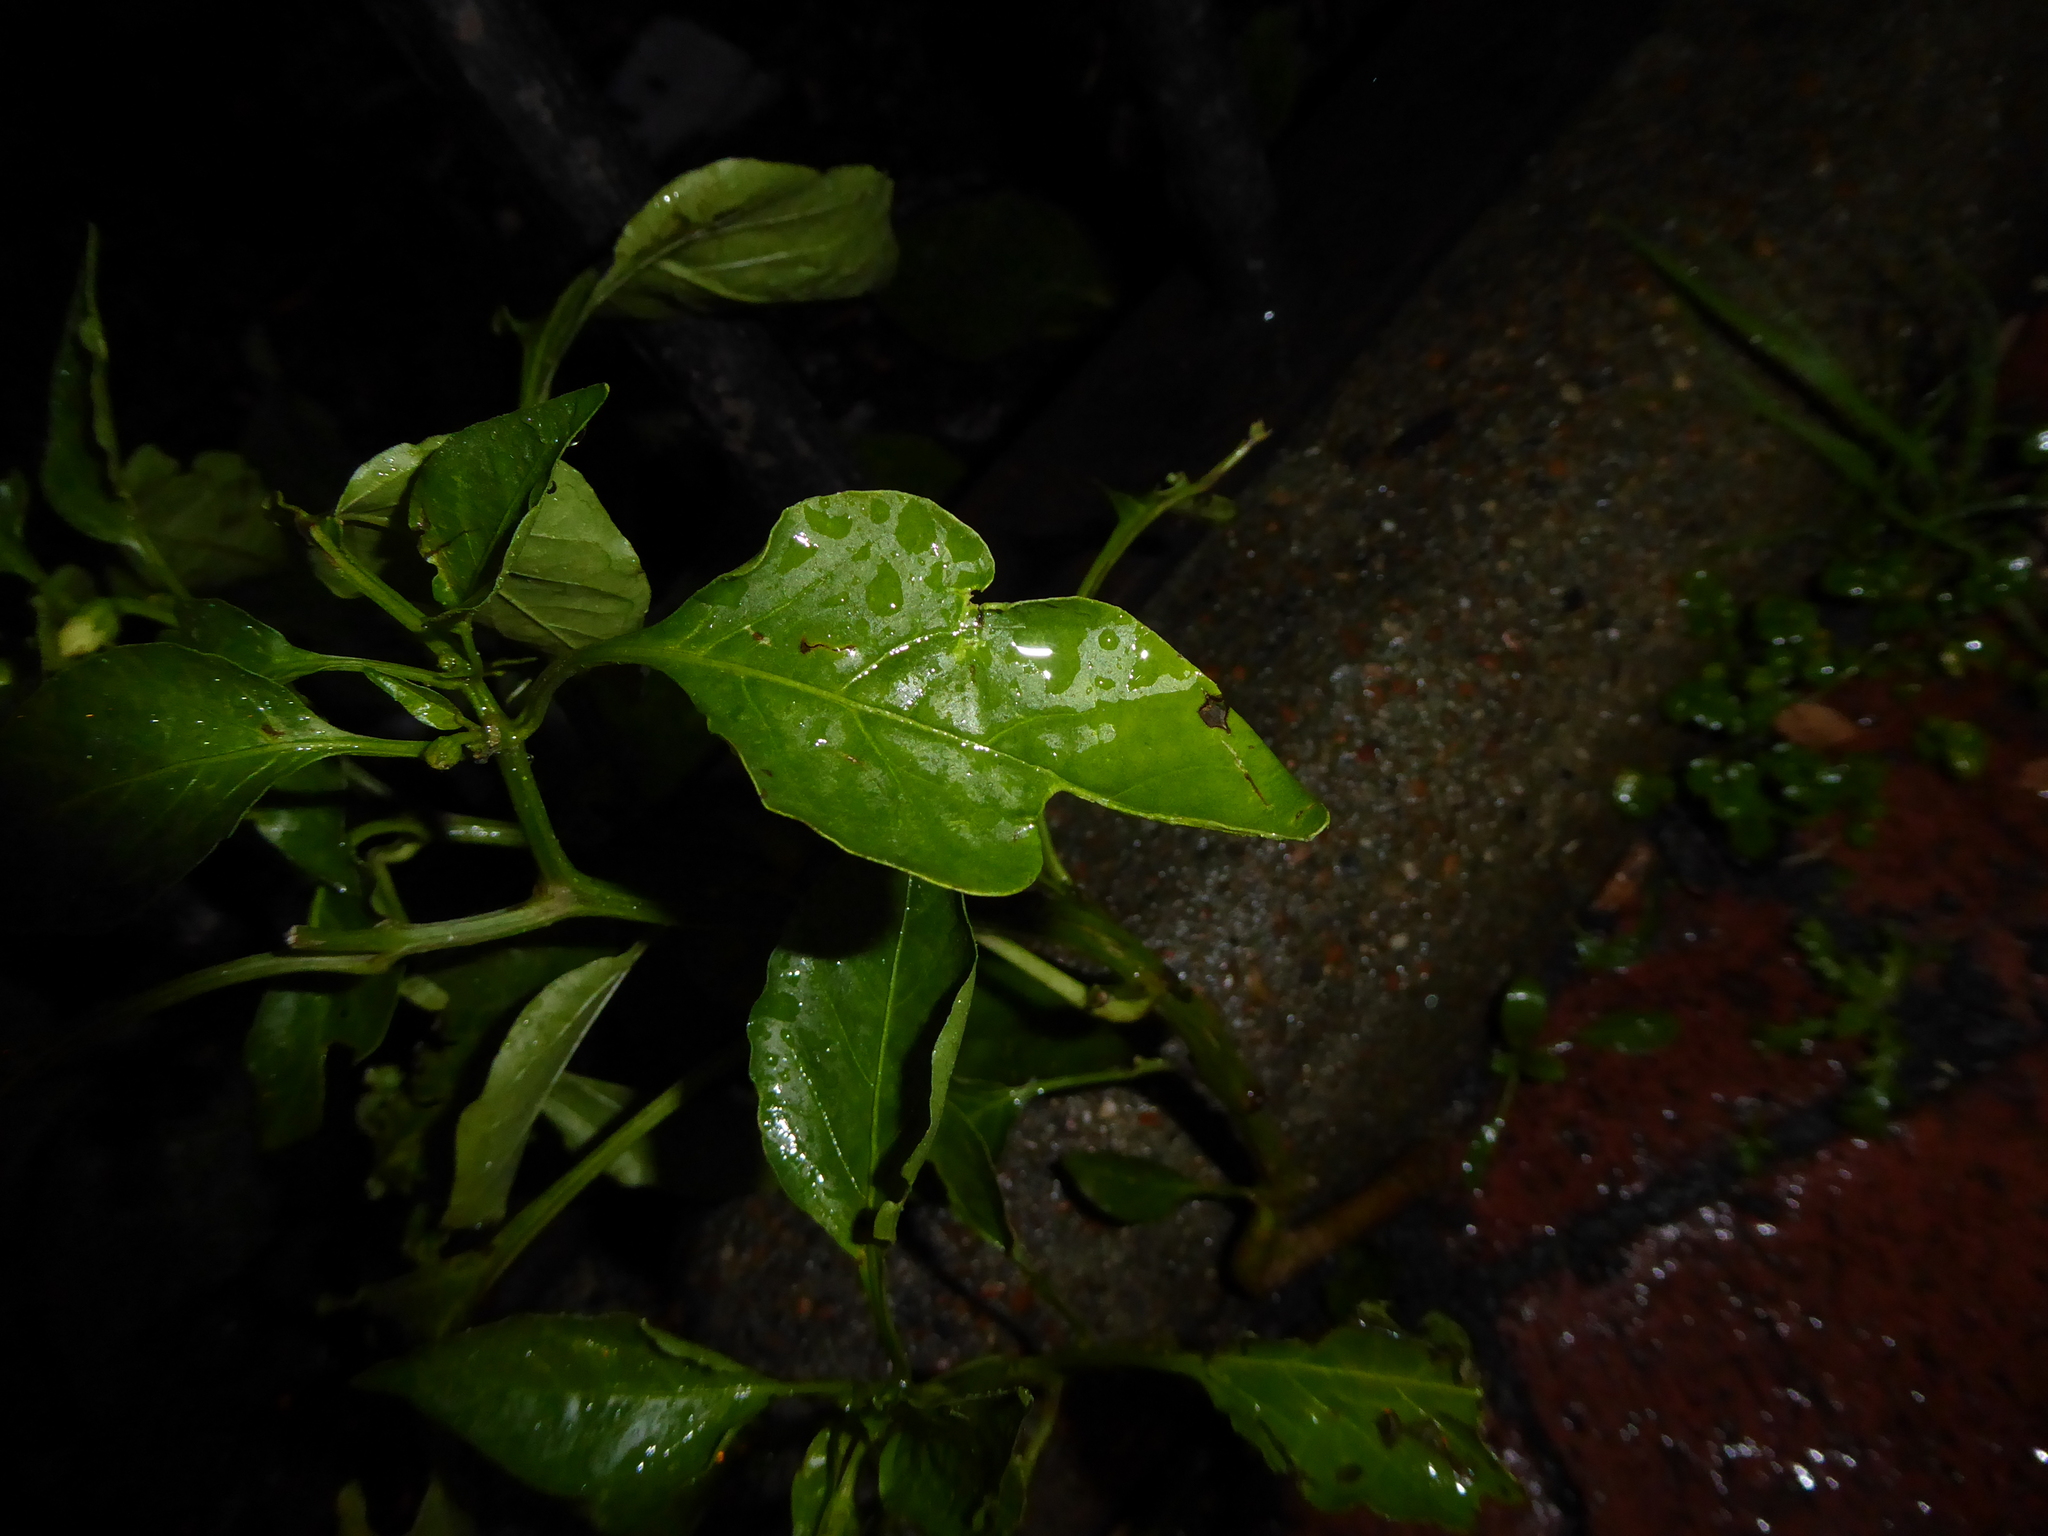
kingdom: Plantae
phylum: Tracheophyta
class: Magnoliopsida
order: Solanales
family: Solanaceae
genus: Capsicum
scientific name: Capsicum annuum
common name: Sweet pepper
